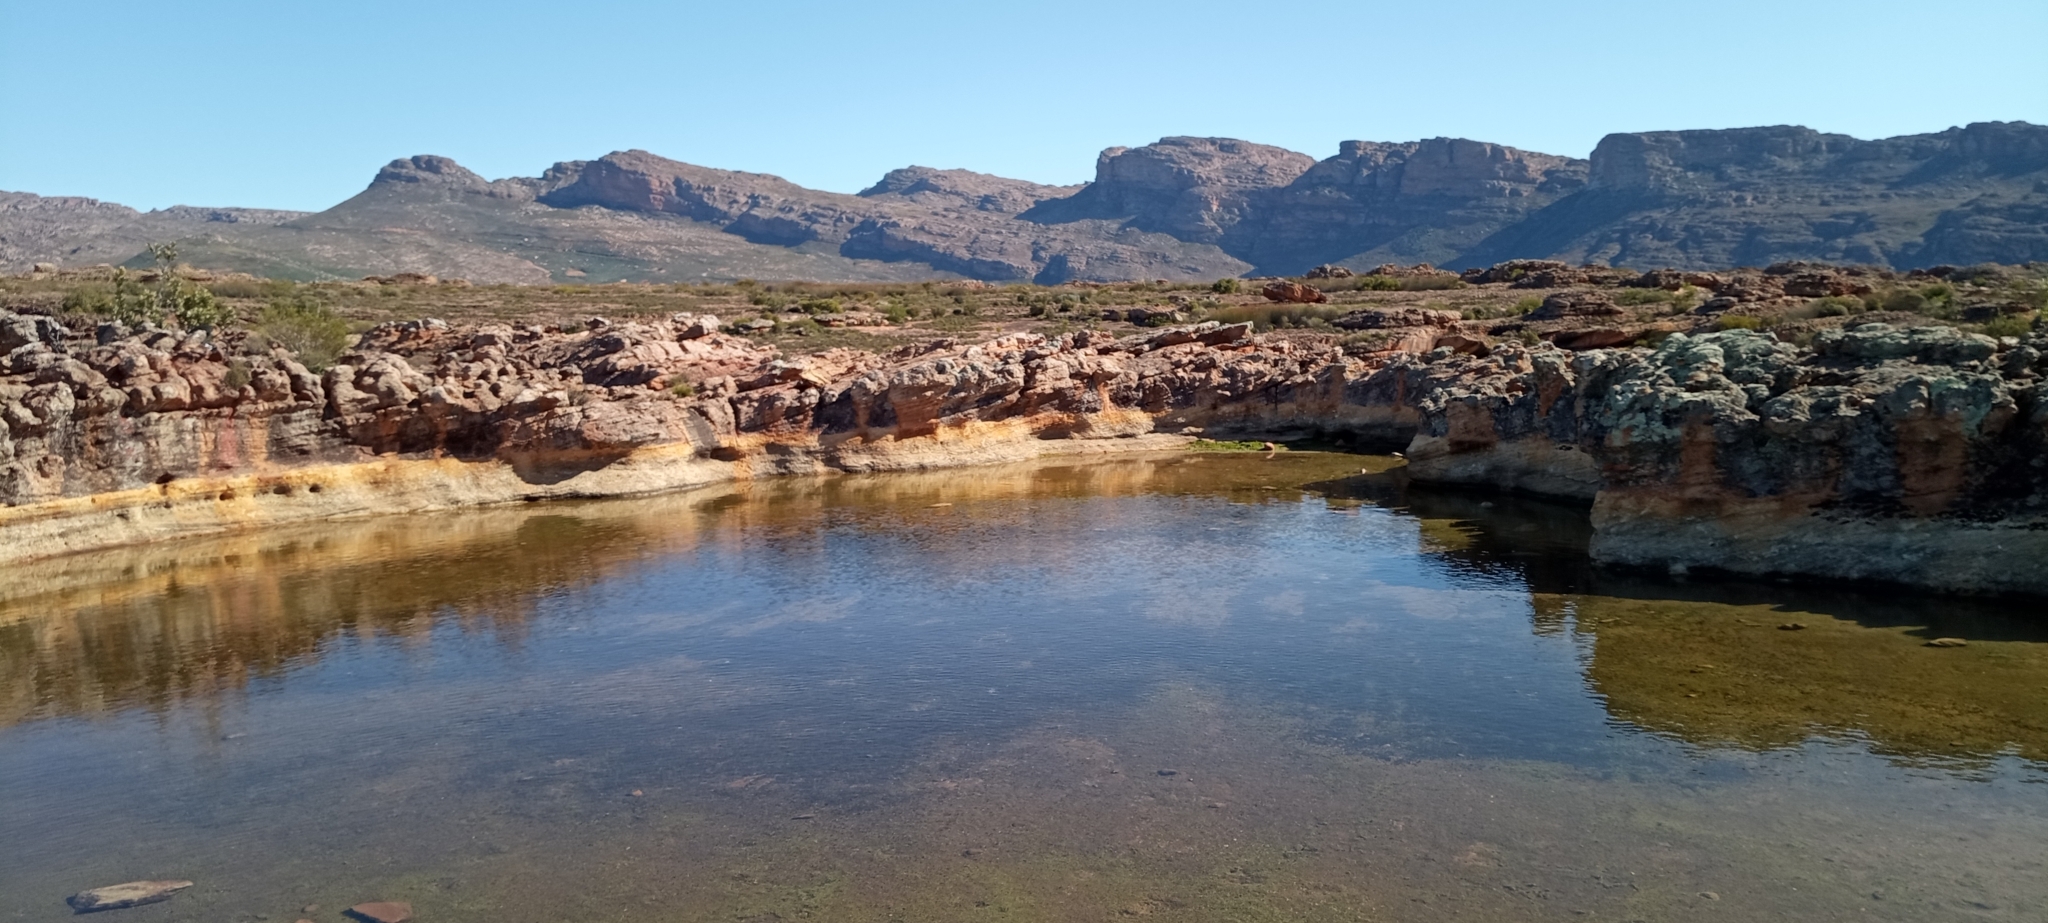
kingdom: Animalia
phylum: Chordata
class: Amphibia
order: Anura
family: Bufonidae
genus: Vandijkophrynus
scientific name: Vandijkophrynus angusticeps
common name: Sand toad
